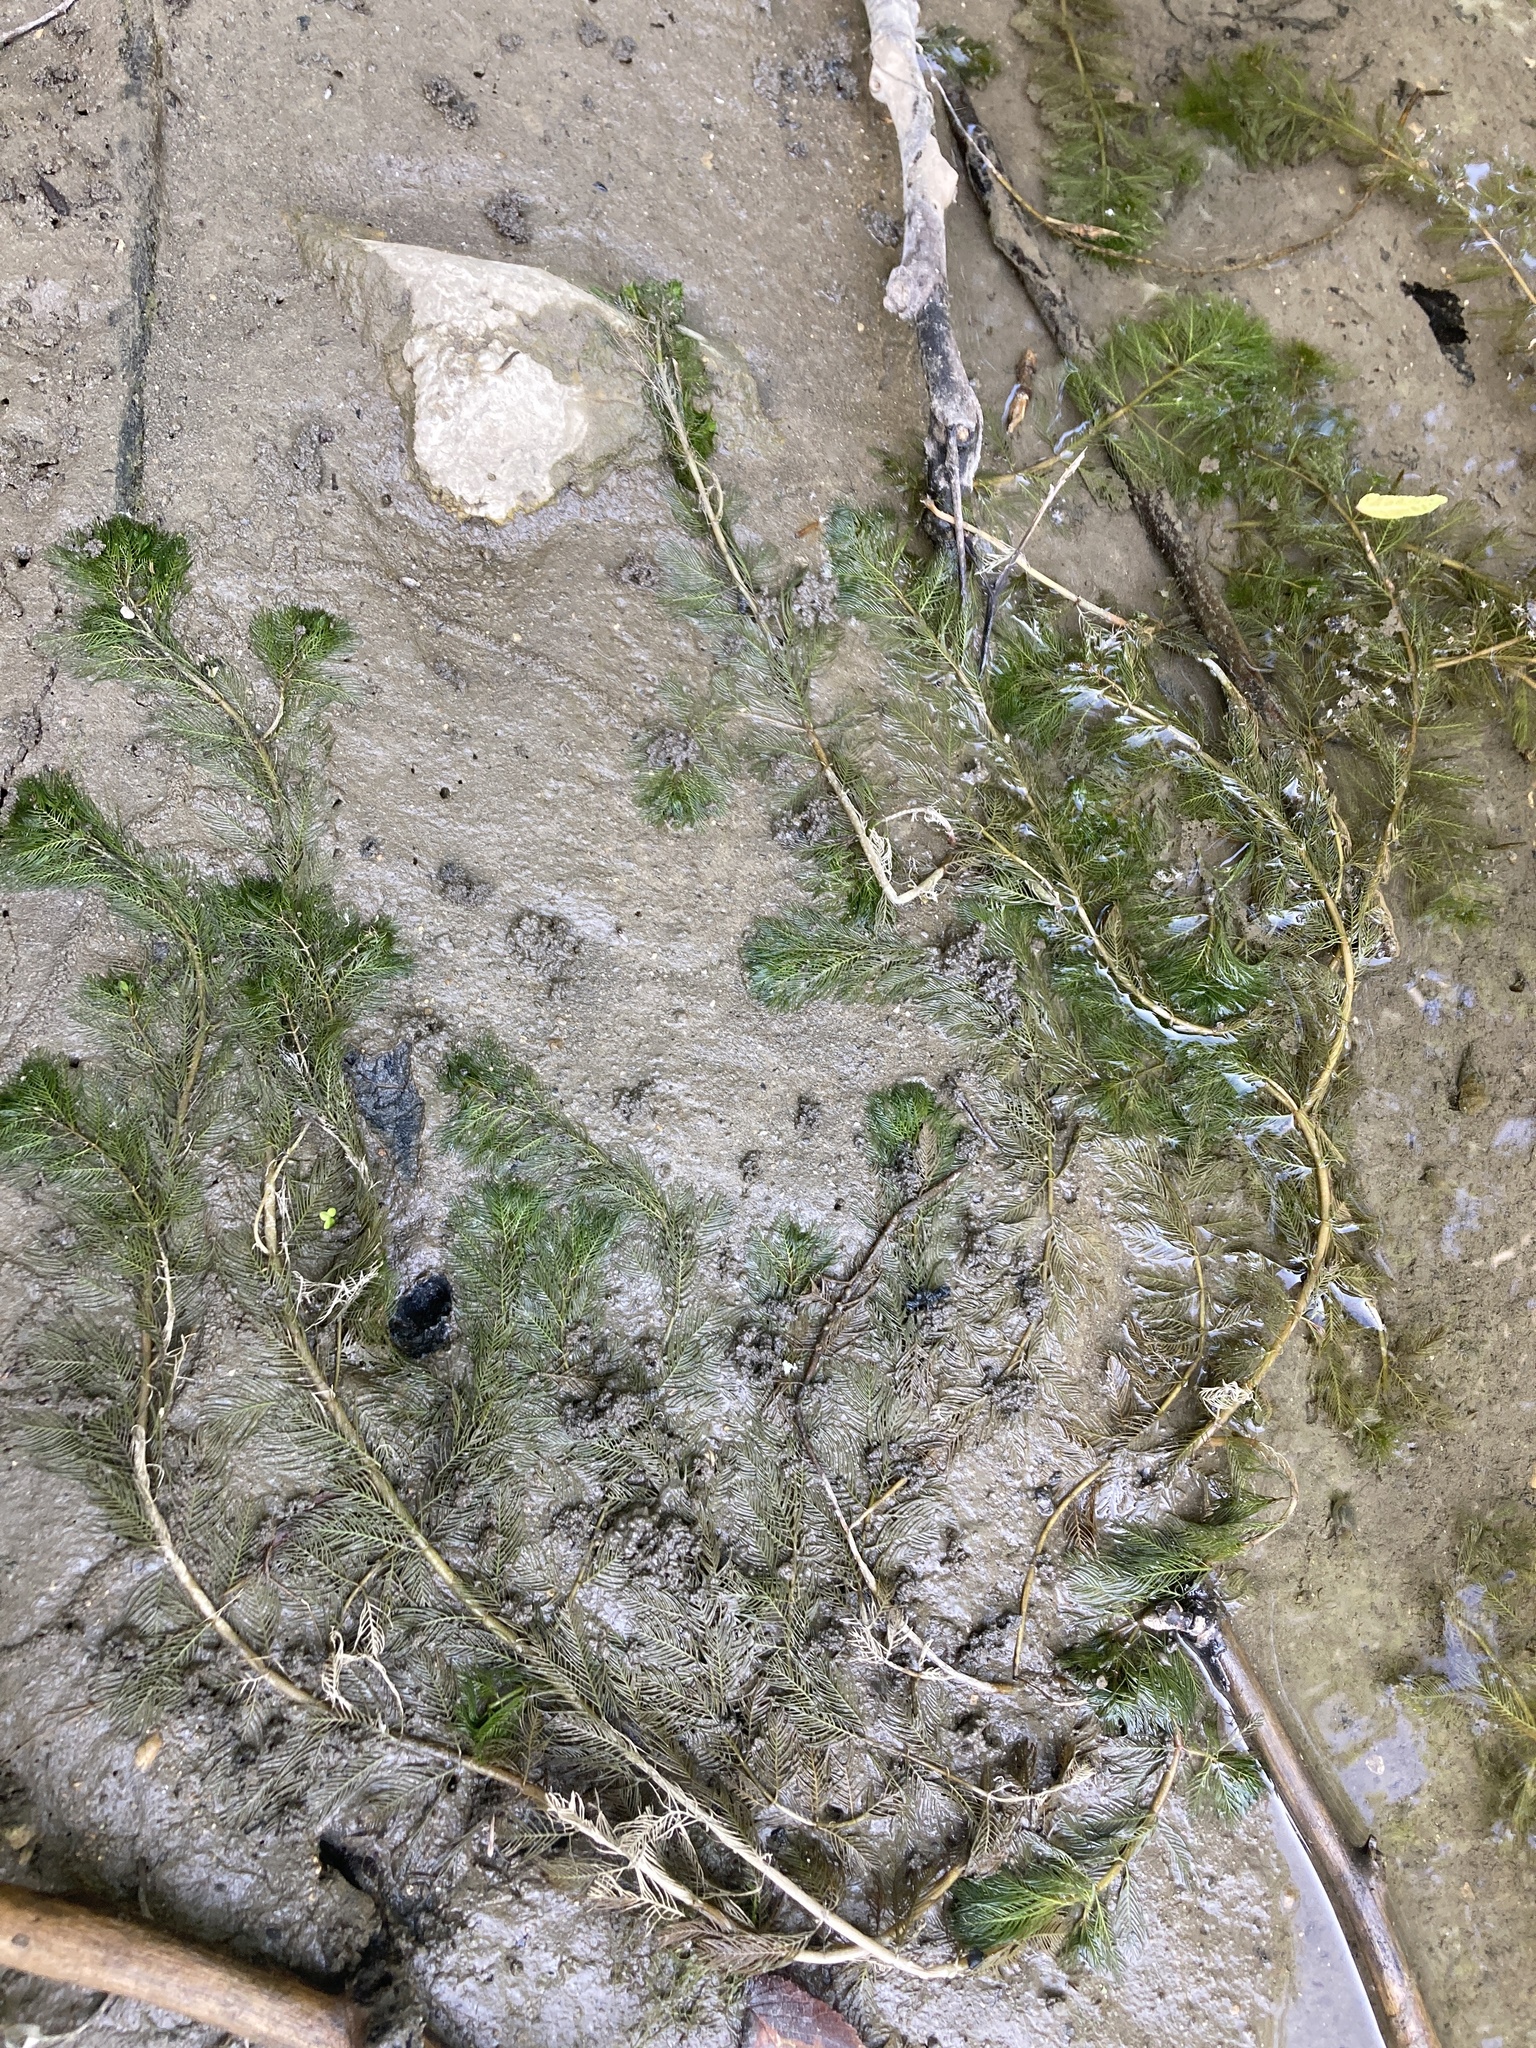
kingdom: Plantae
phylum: Tracheophyta
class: Magnoliopsida
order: Saxifragales
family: Haloragaceae
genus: Myriophyllum
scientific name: Myriophyllum spicatum
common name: Spiked water-milfoil
